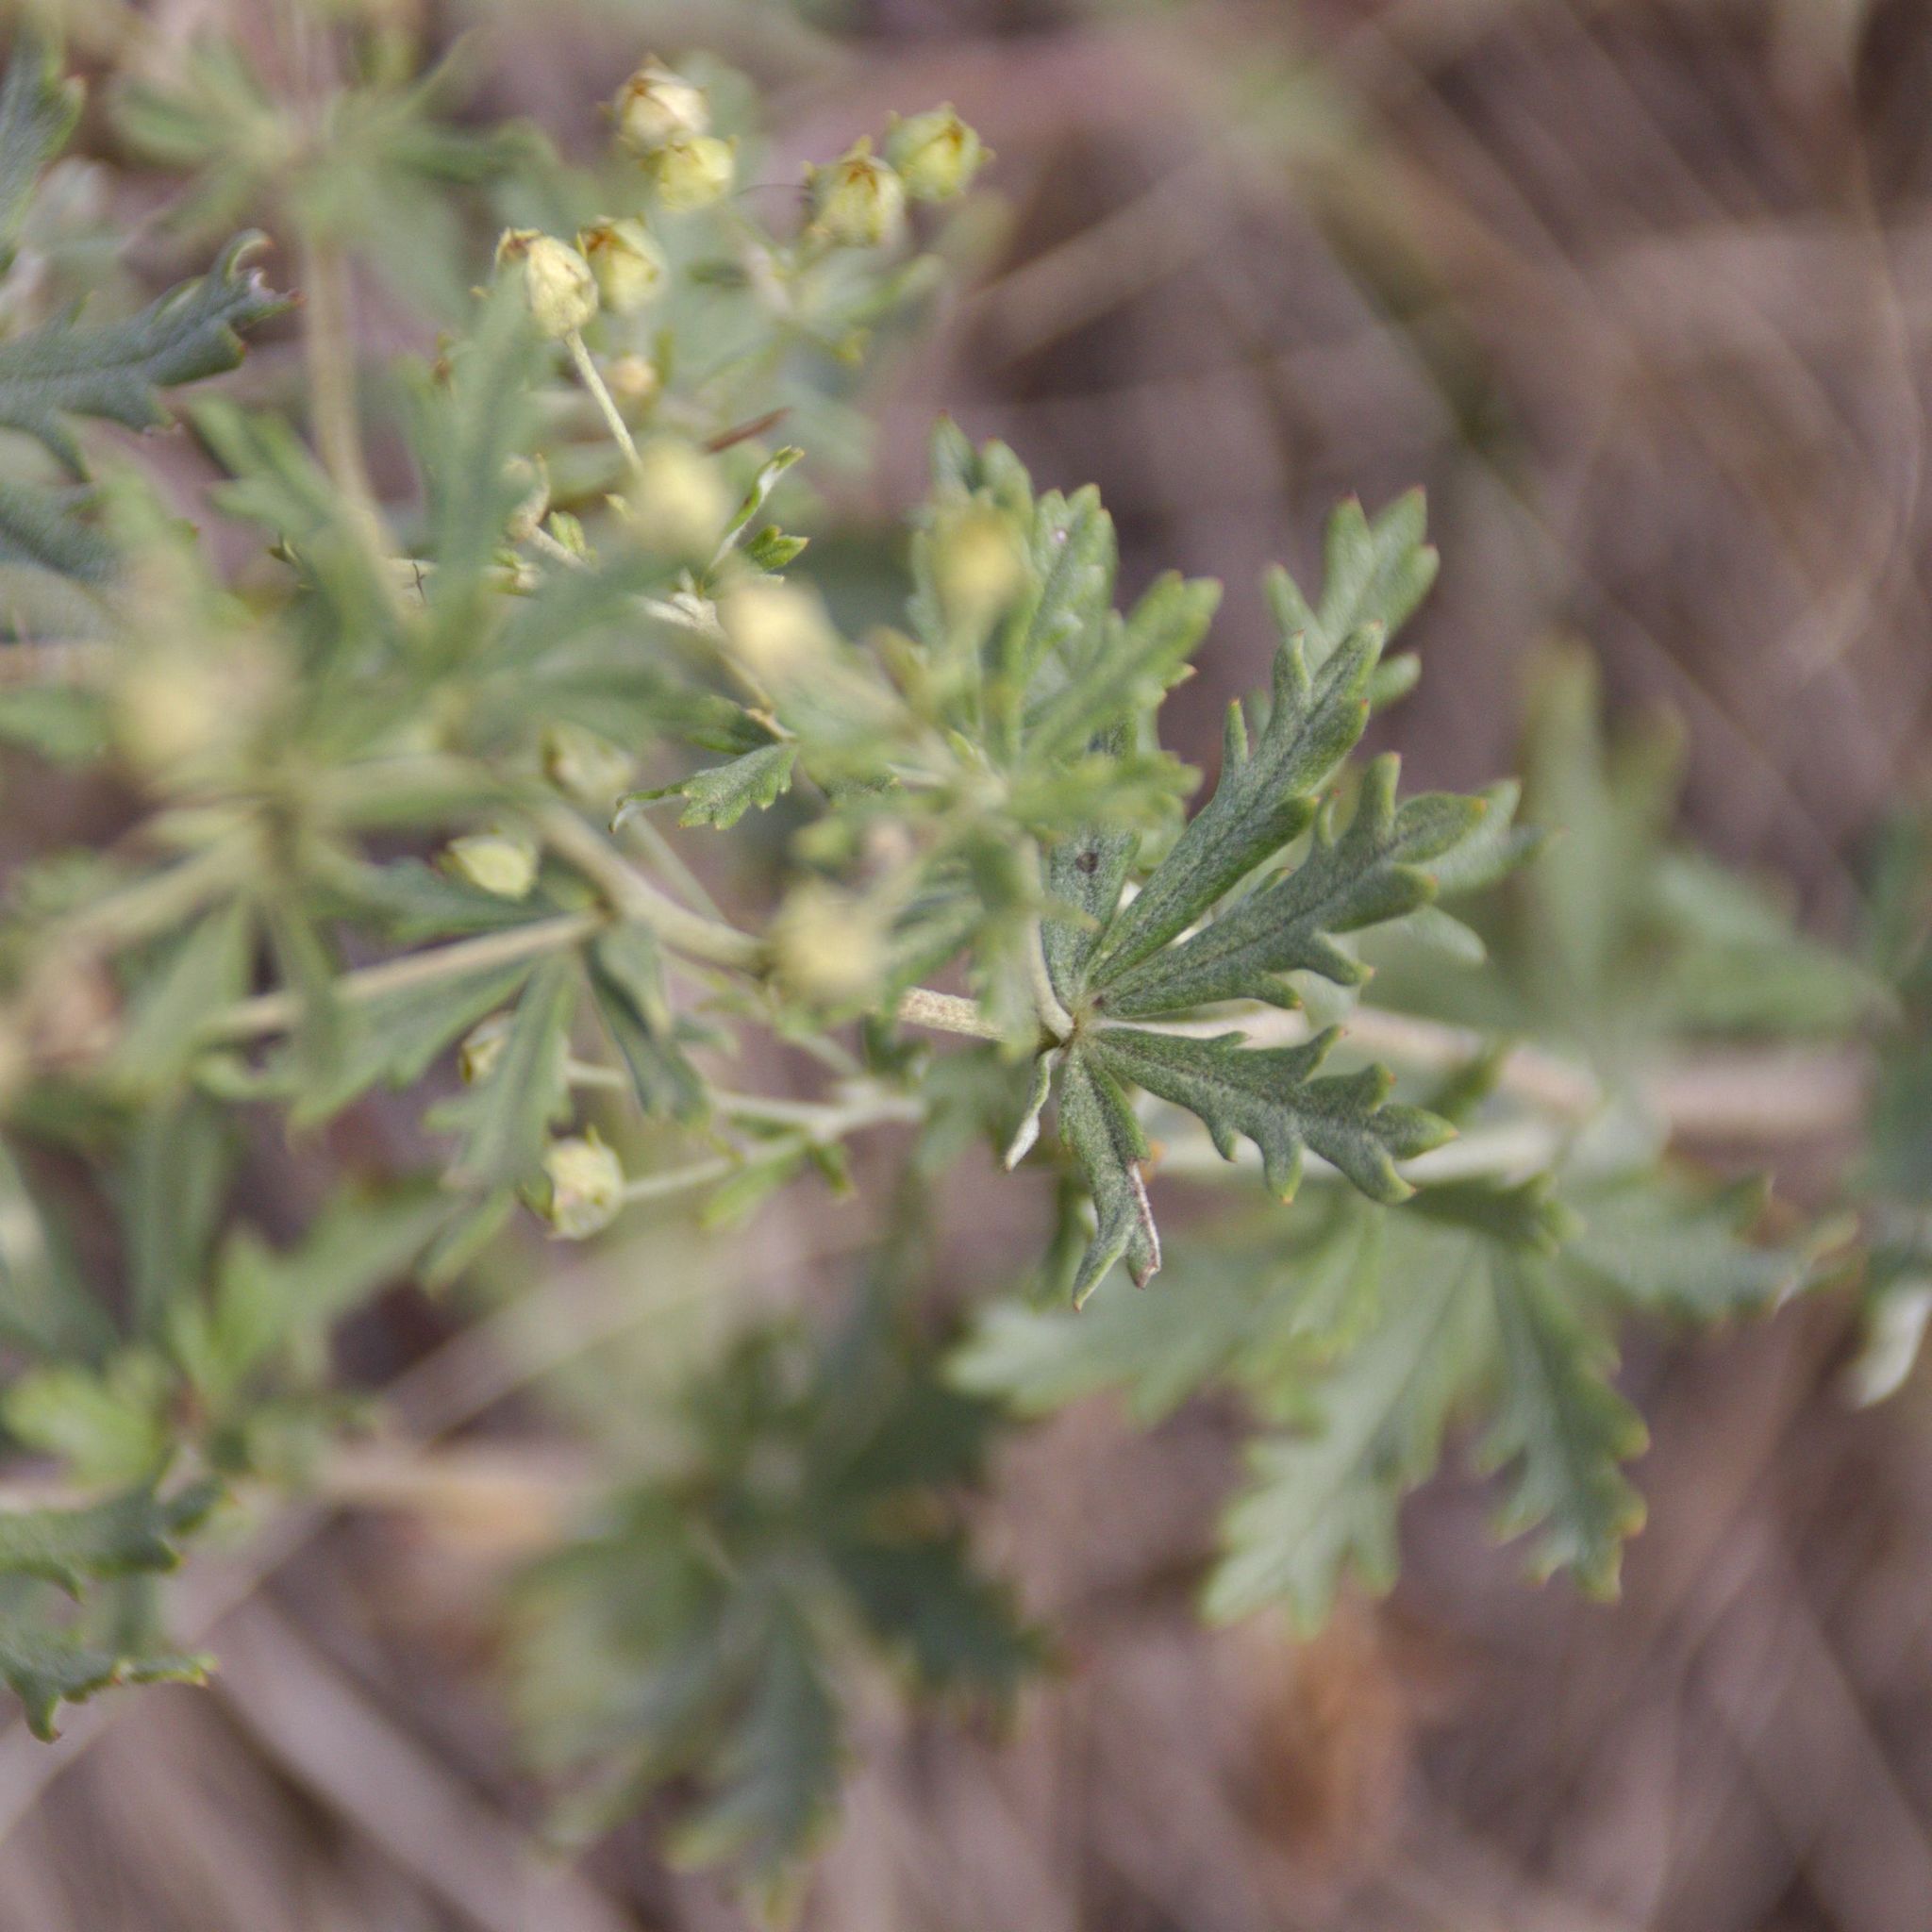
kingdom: Plantae
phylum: Tracheophyta
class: Magnoliopsida
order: Rosales
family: Rosaceae
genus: Potentilla
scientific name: Potentilla argentea
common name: Hoary cinquefoil
